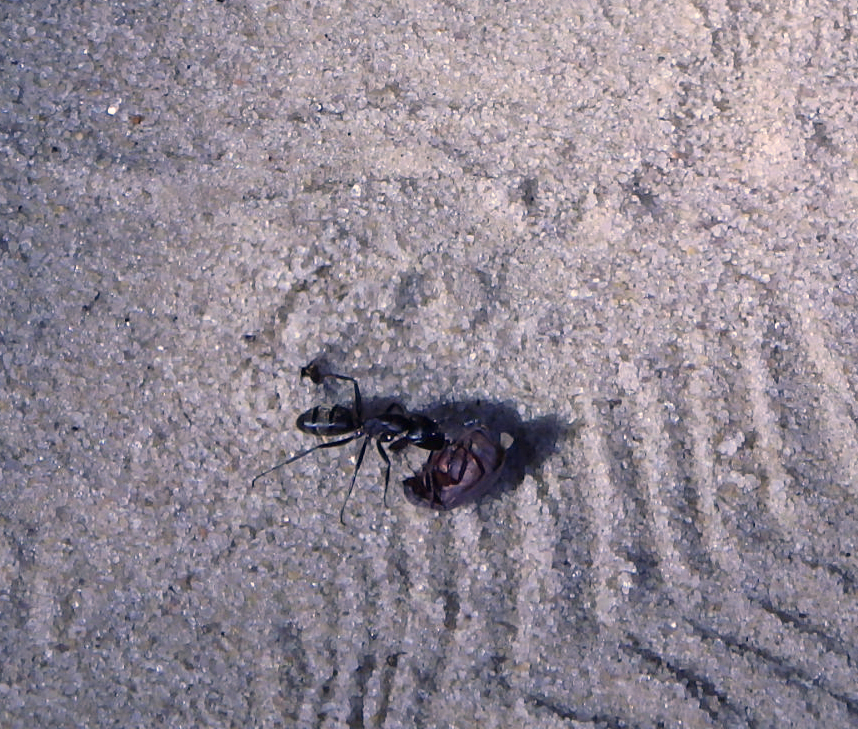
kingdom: Animalia
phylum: Arthropoda
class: Insecta
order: Hymenoptera
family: Formicidae
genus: Camponotus
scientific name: Camponotus pennsylvanicus
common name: Black carpenter ant
